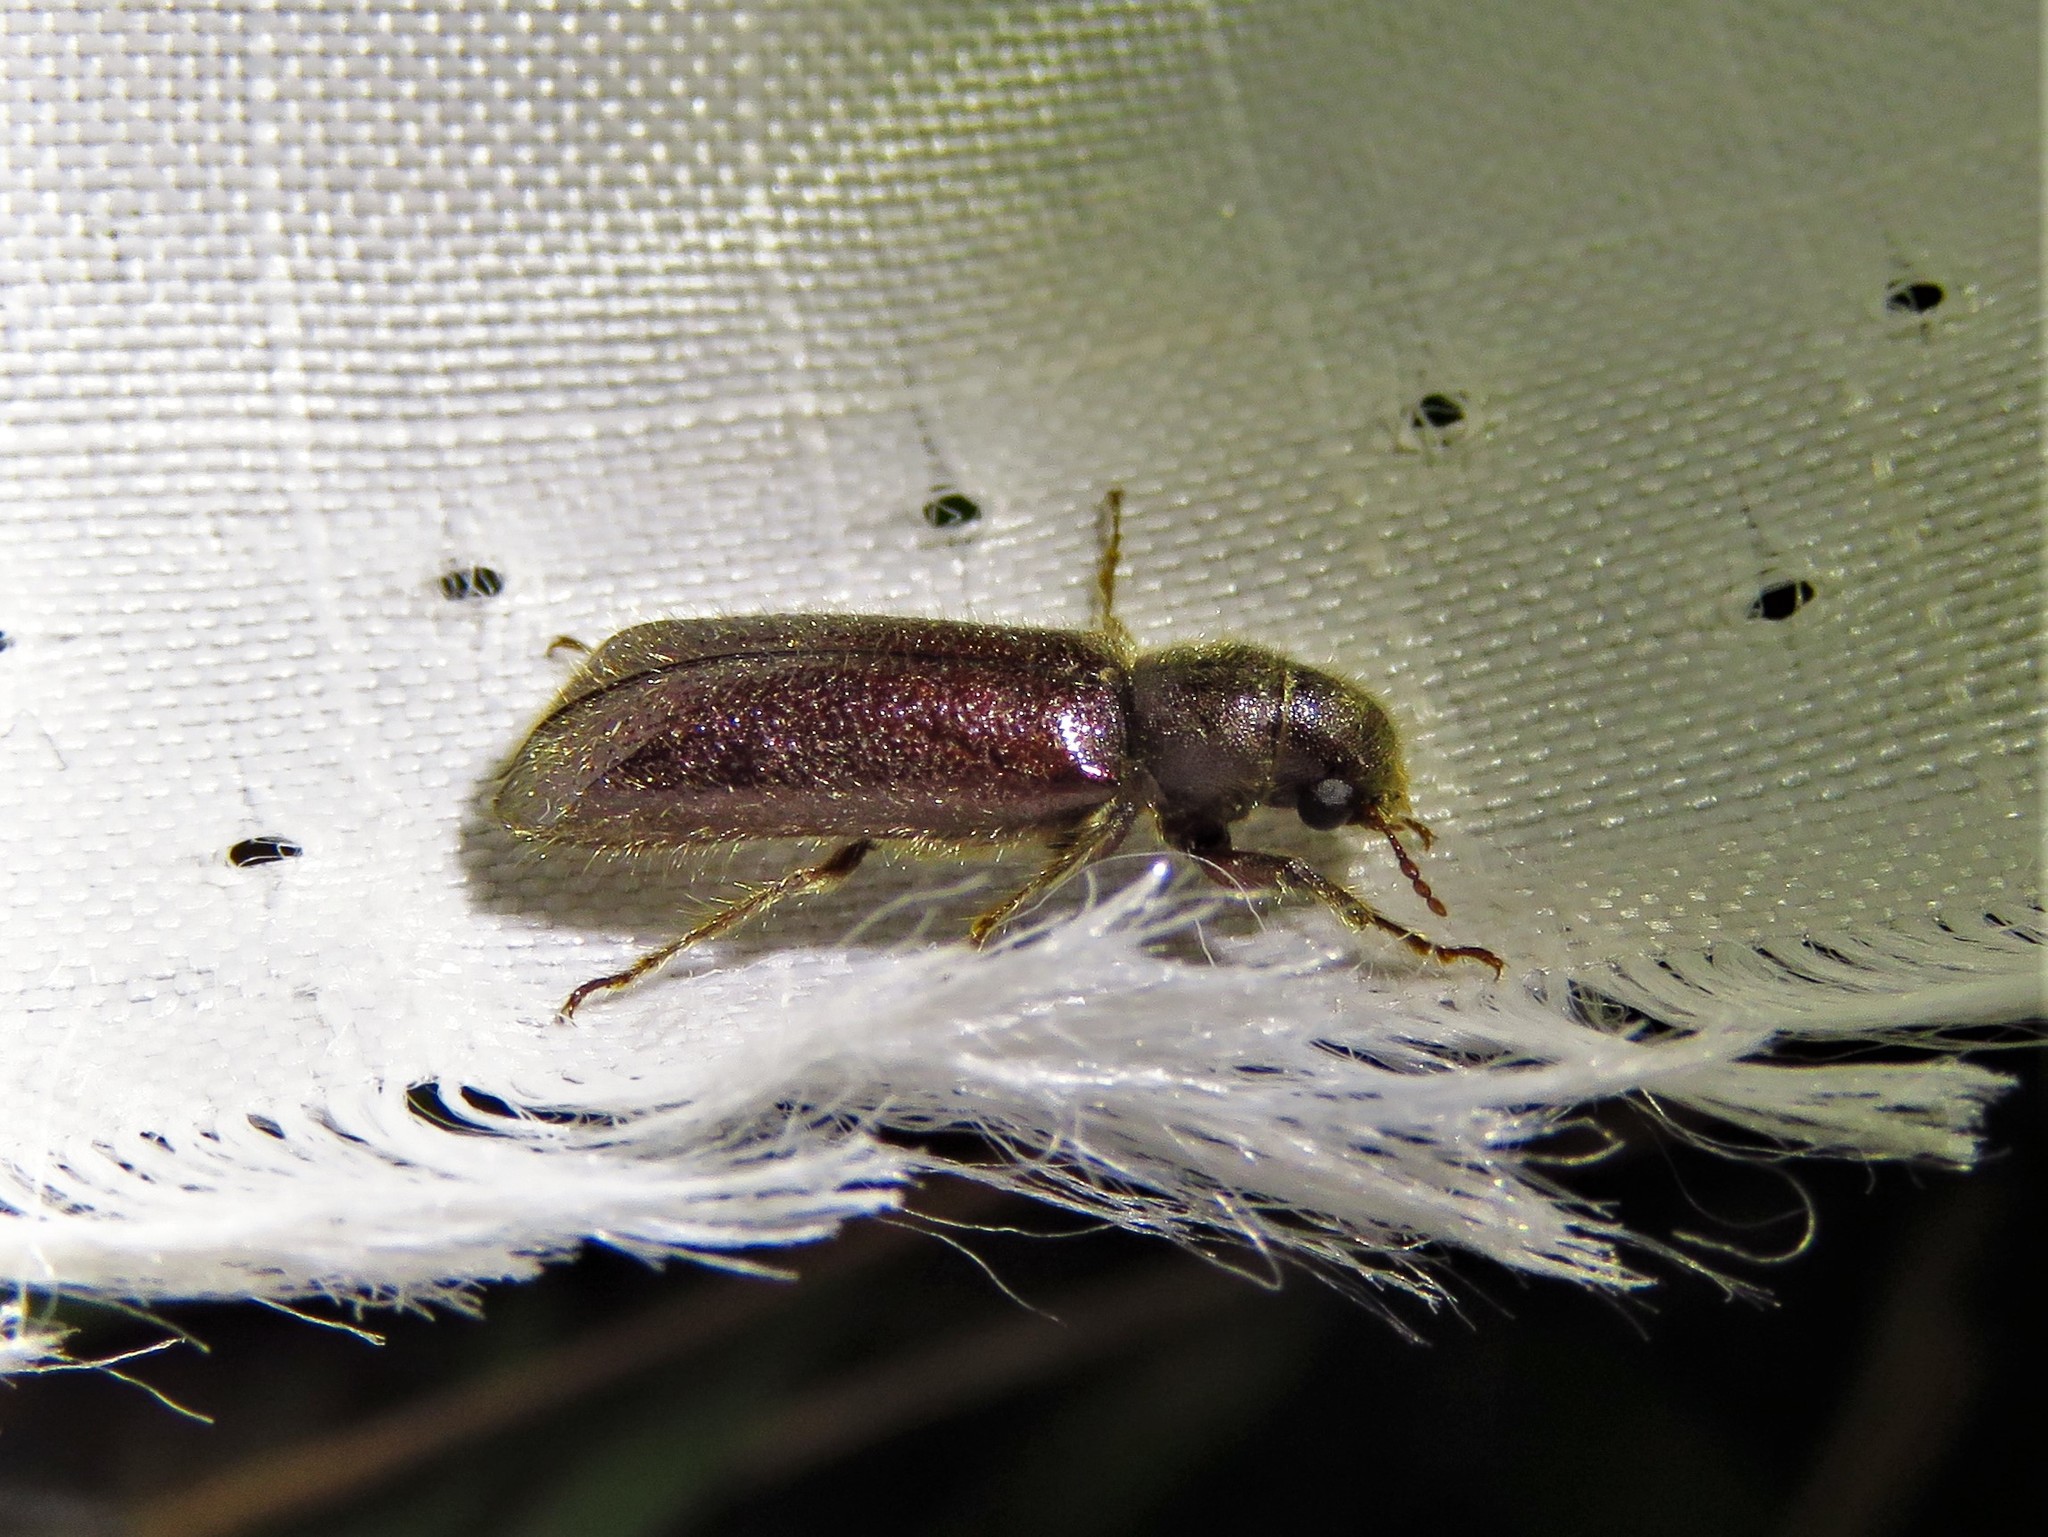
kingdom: Animalia
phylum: Arthropoda
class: Insecta
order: Coleoptera
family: Bostrichidae
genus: Melalgus
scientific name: Melalgus plicatus
